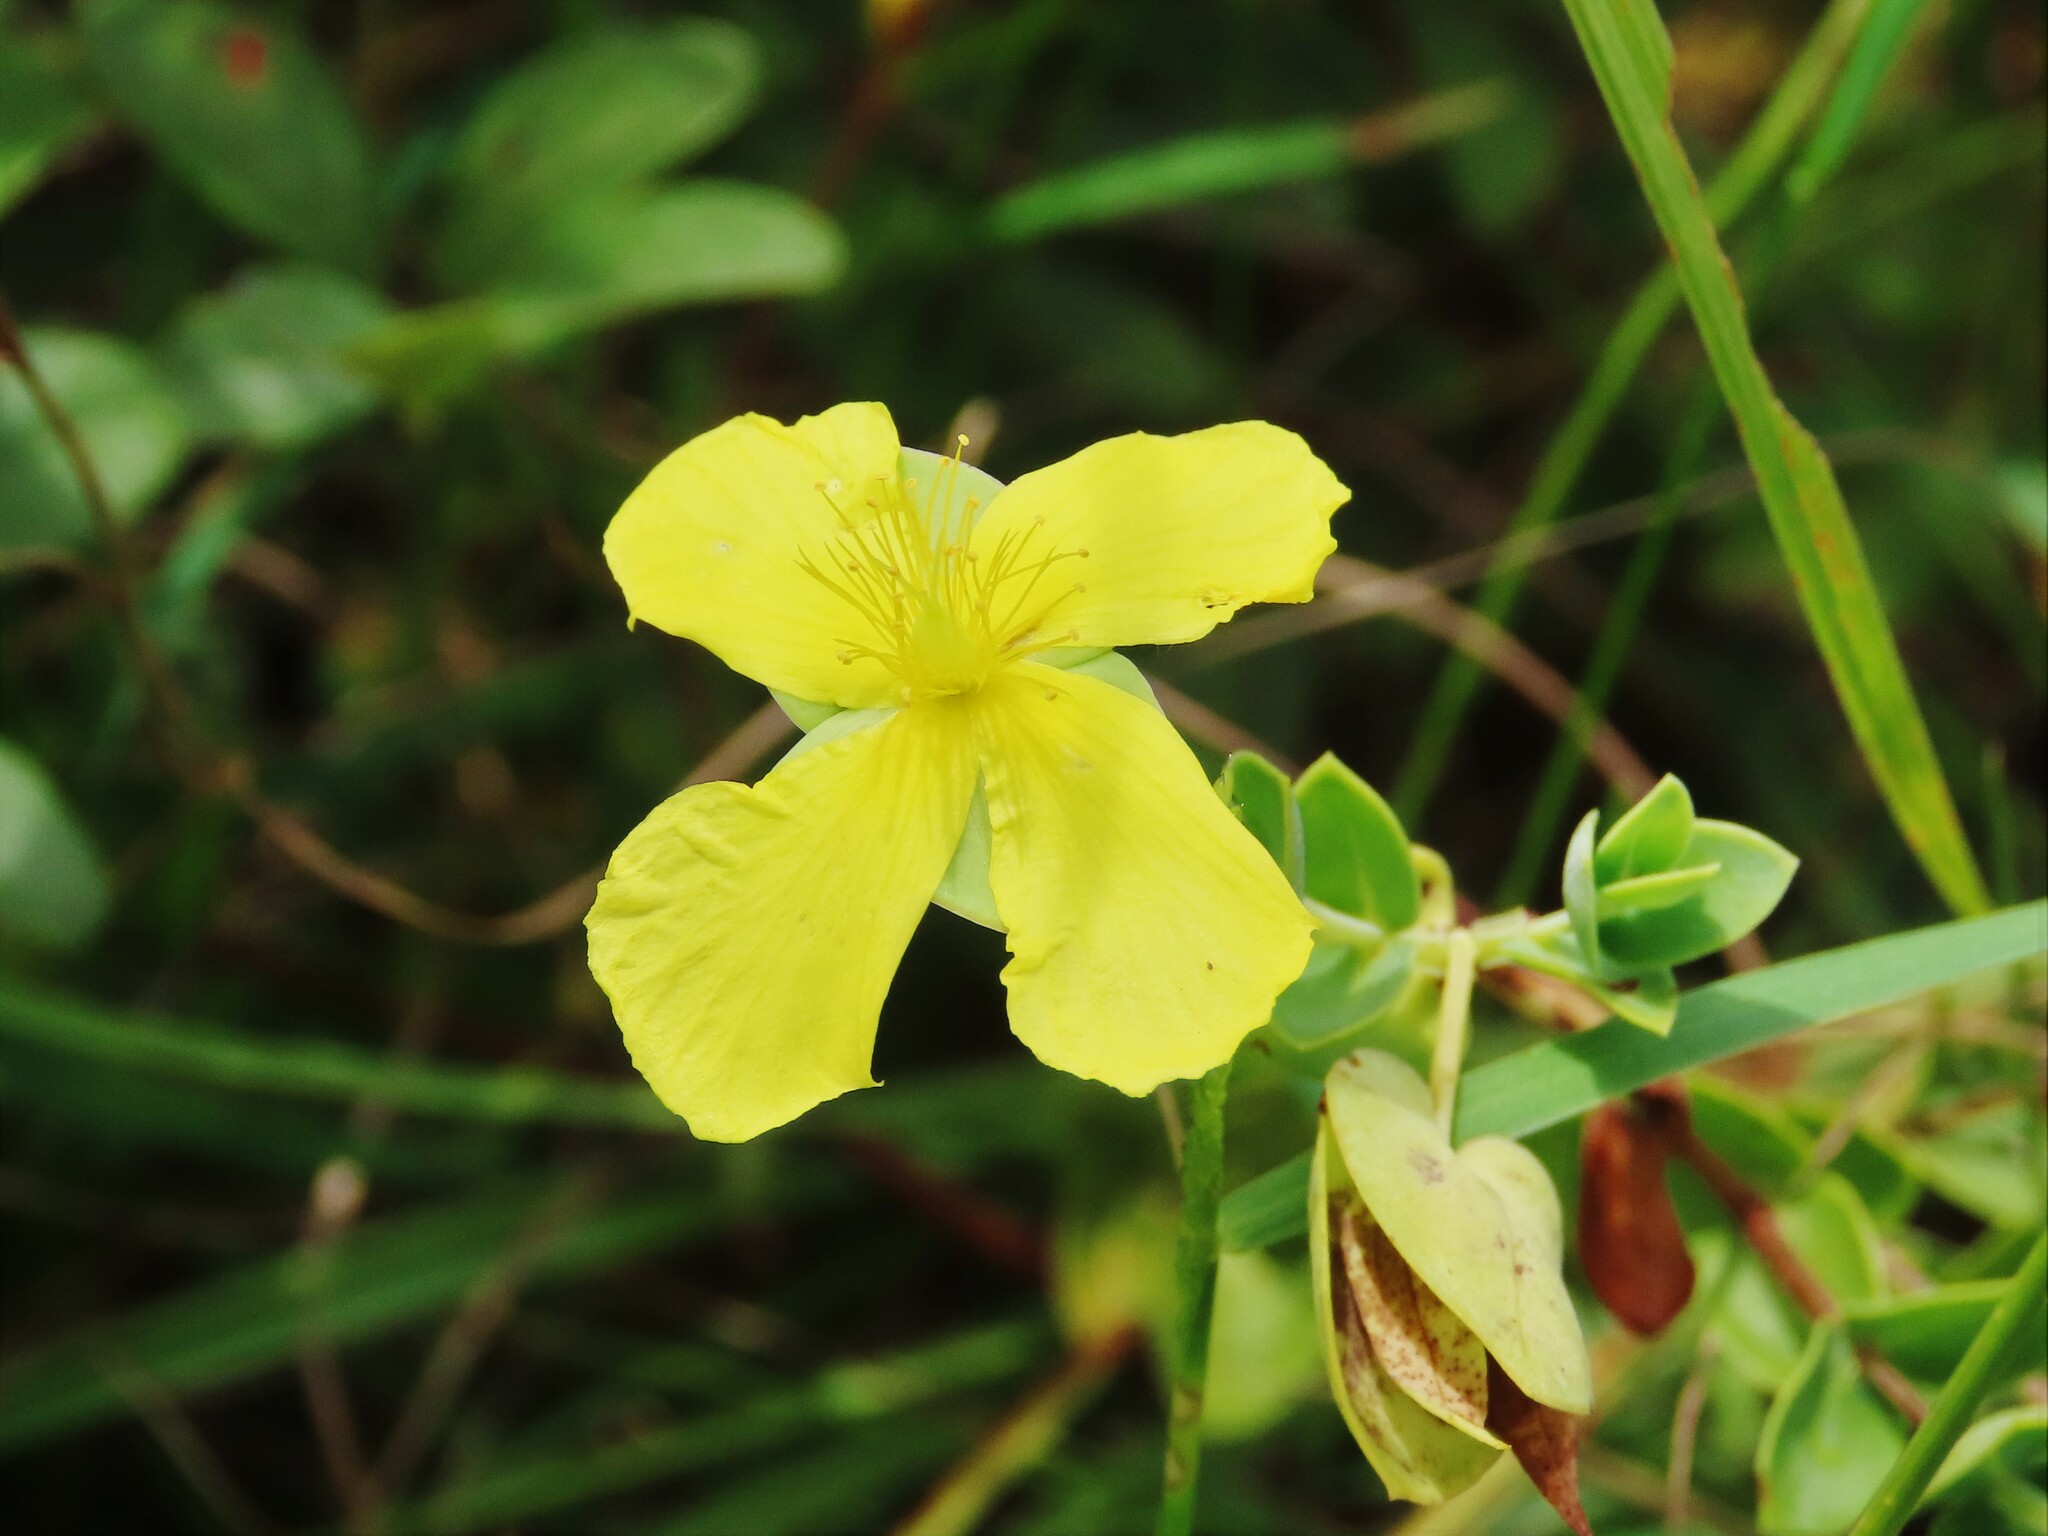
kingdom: Plantae
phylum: Tracheophyta
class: Magnoliopsida
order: Malpighiales
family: Hypericaceae
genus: Hypericum
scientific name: Hypericum tetrapetalum
